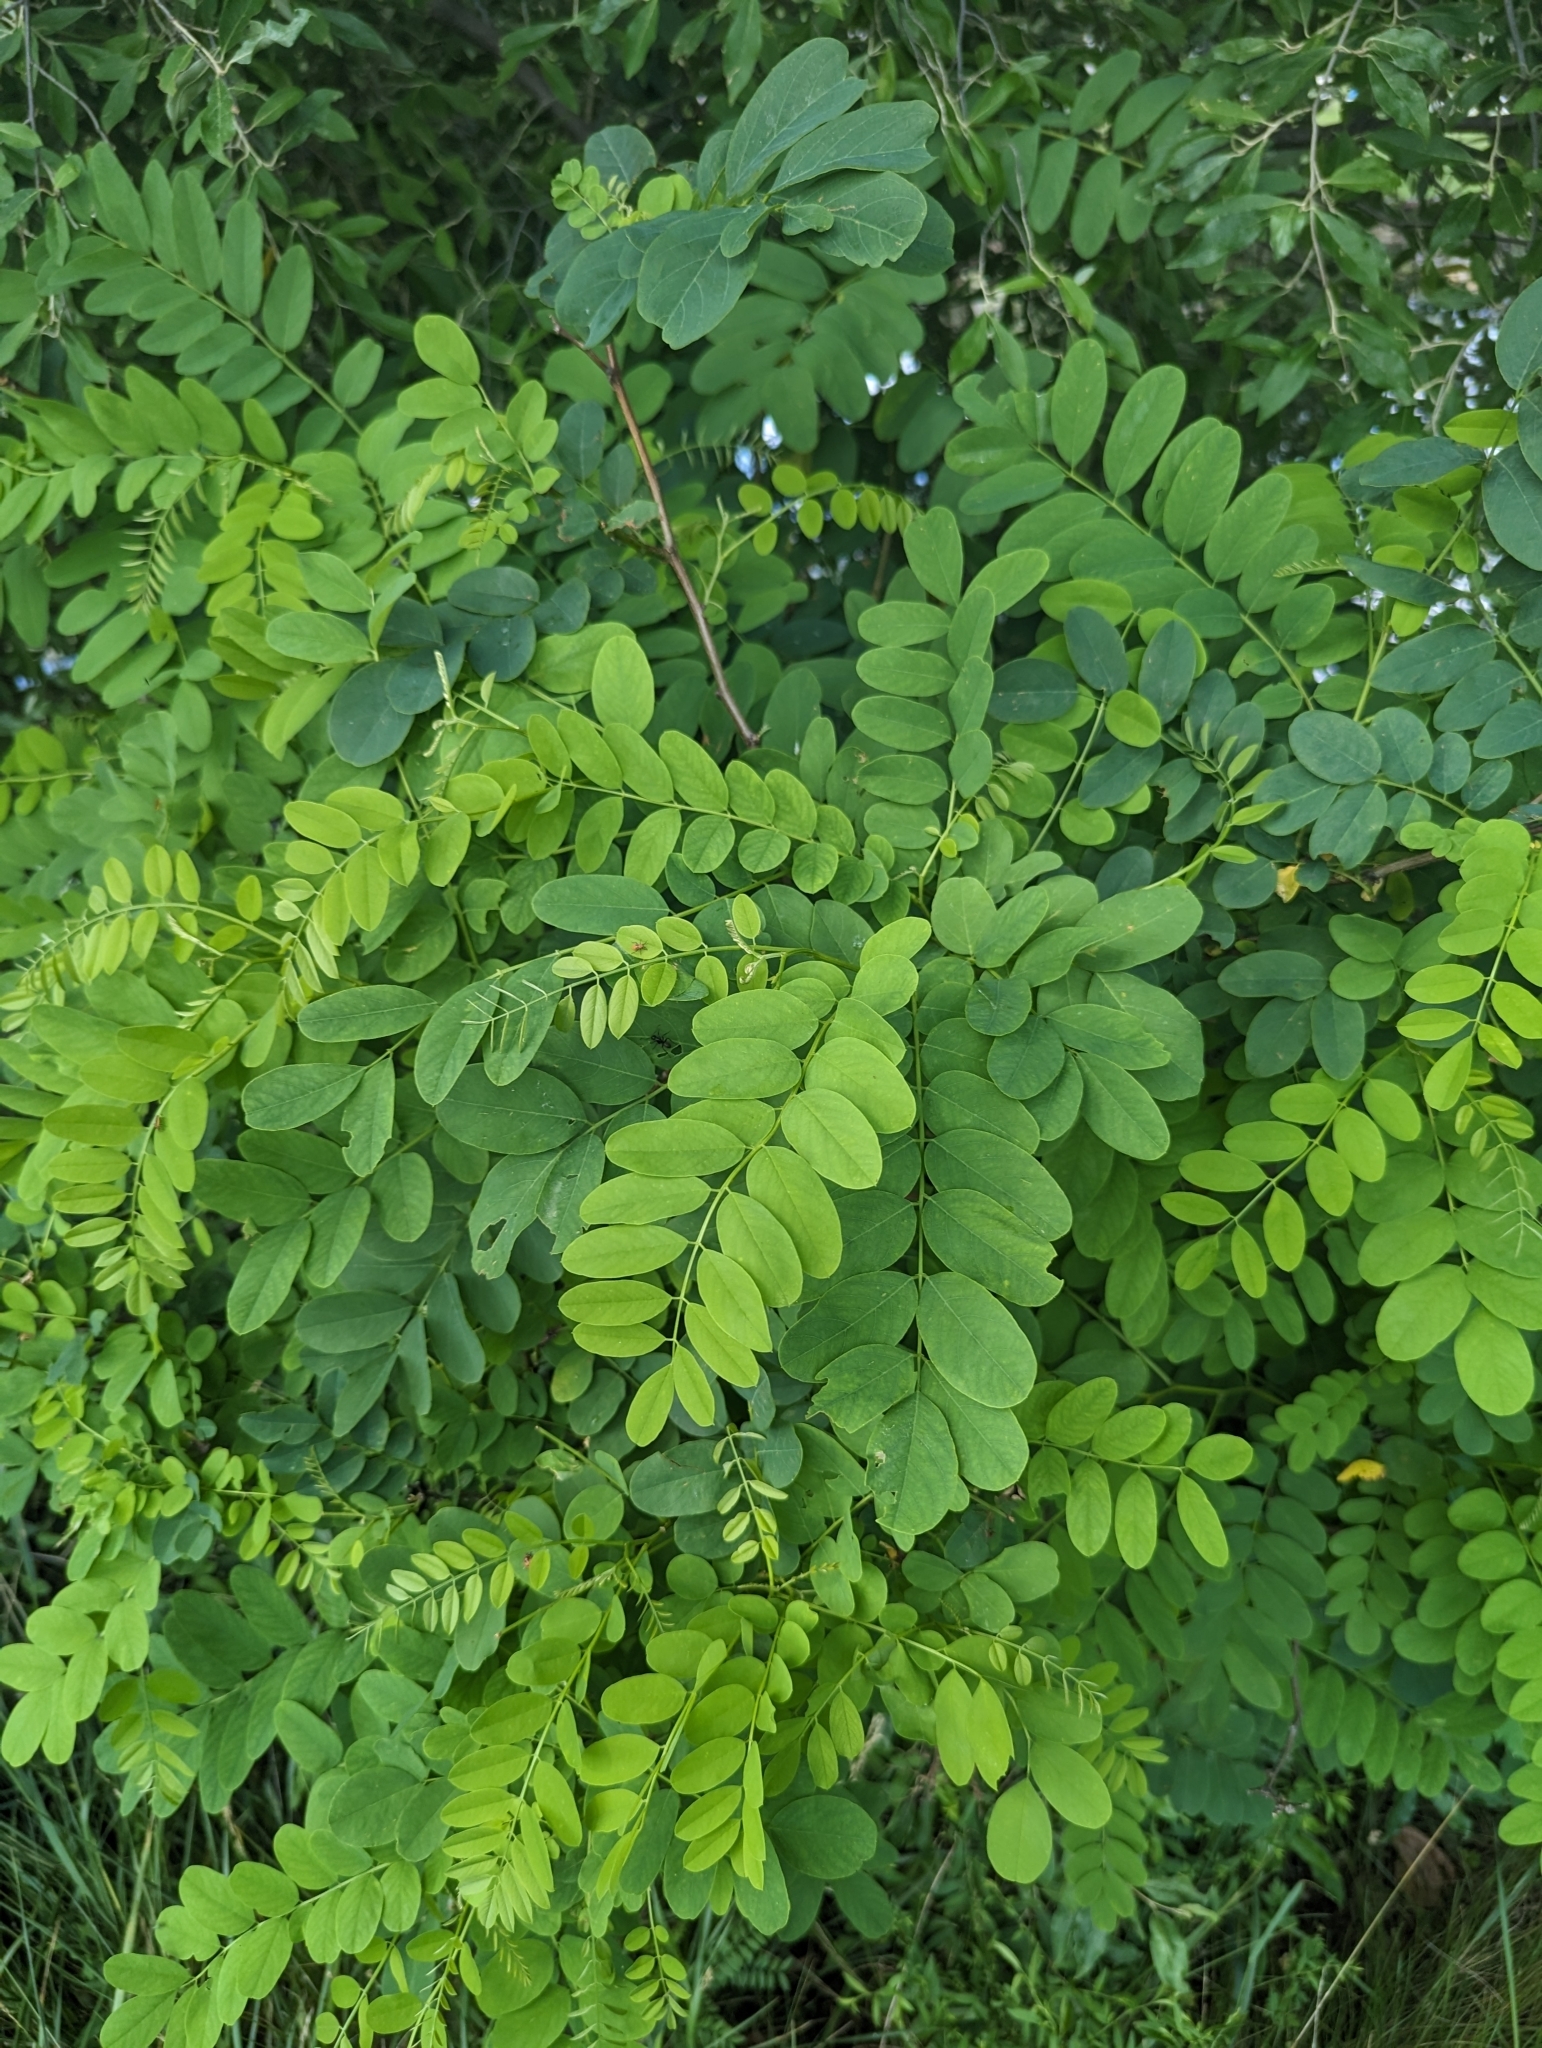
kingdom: Plantae
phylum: Tracheophyta
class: Magnoliopsida
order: Fabales
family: Fabaceae
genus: Robinia
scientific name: Robinia pseudoacacia
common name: Black locust
